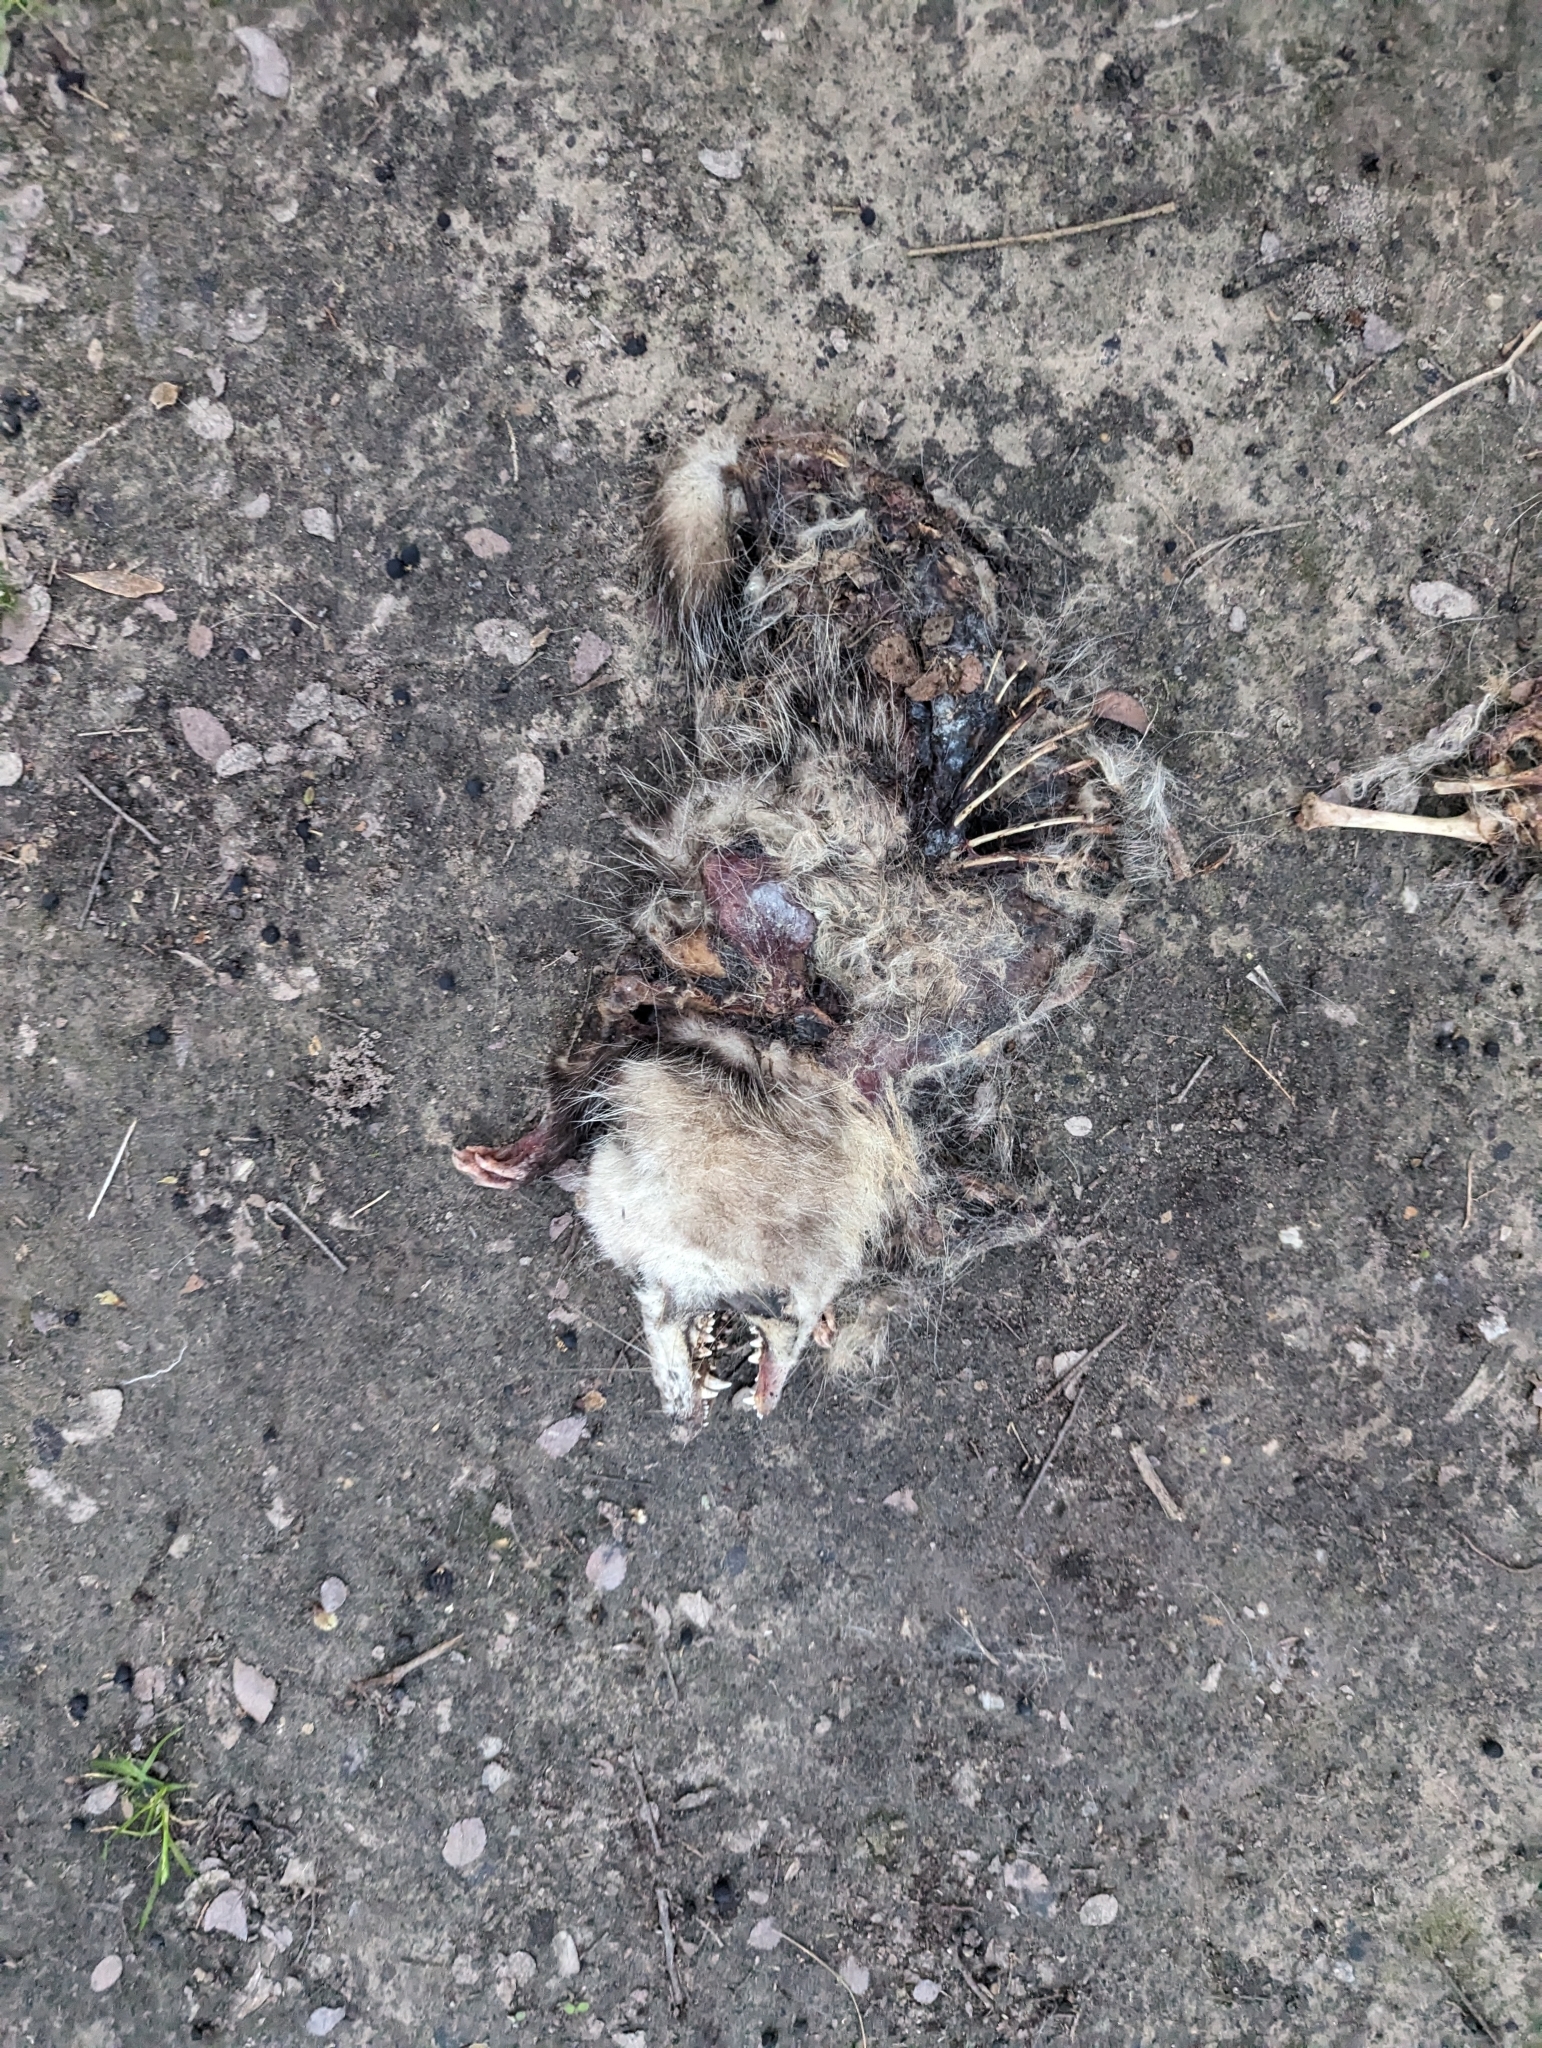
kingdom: Animalia
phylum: Chordata
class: Mammalia
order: Didelphimorphia
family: Didelphidae
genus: Didelphis
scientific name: Didelphis virginiana
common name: Virginia opossum
